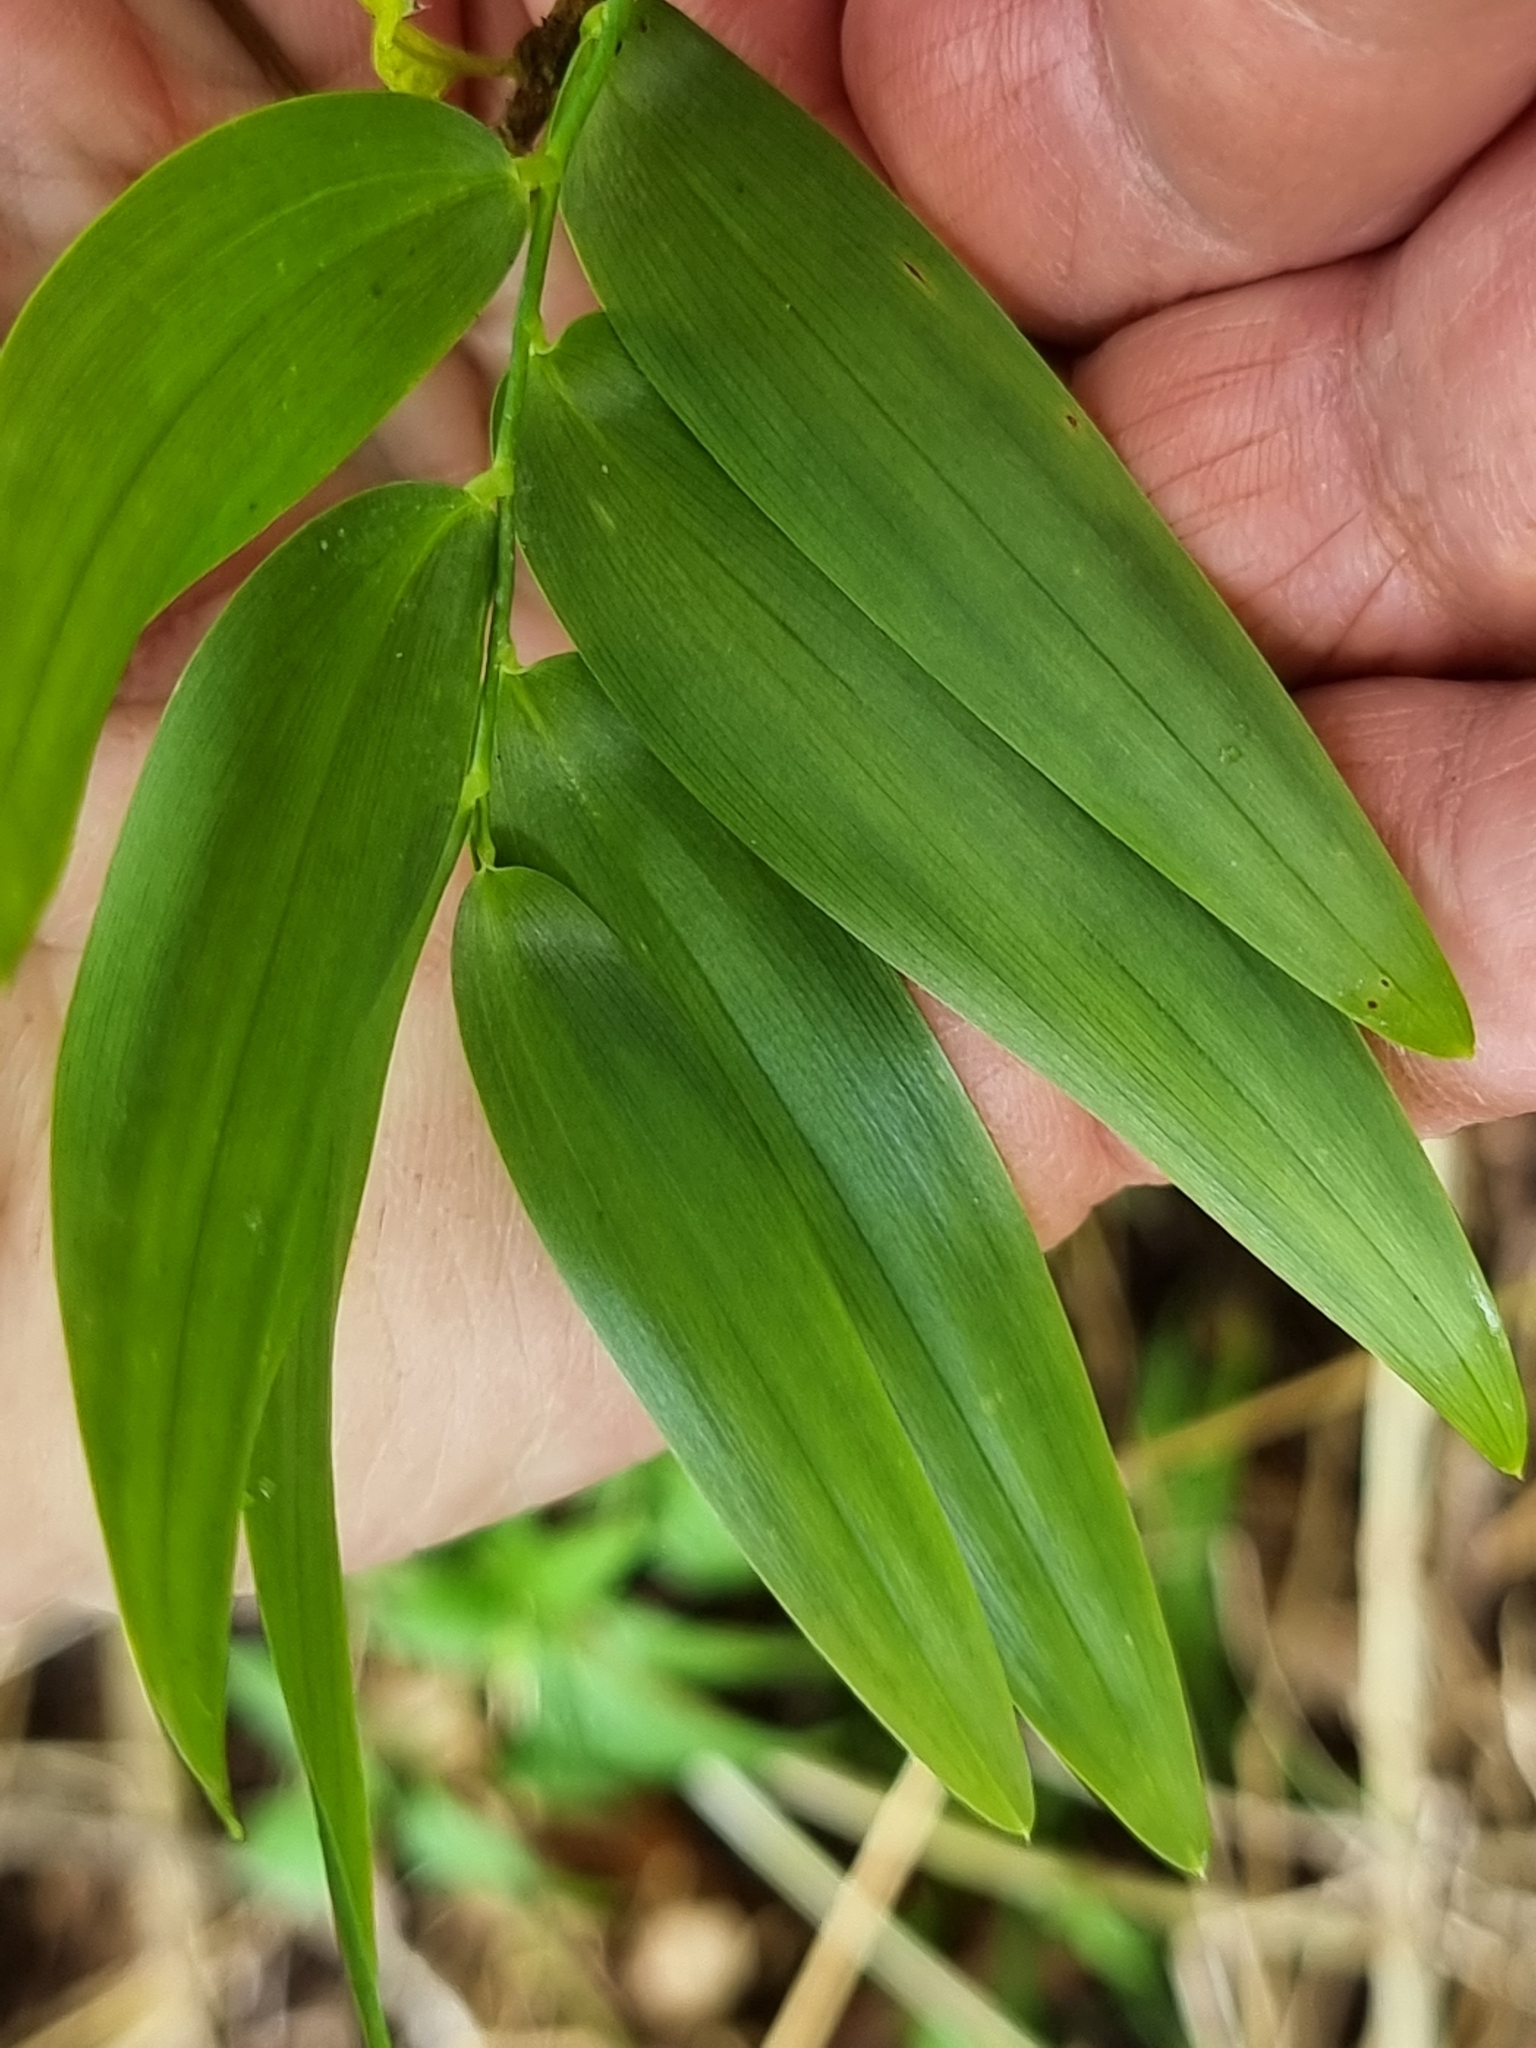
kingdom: Plantae
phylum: Tracheophyta
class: Liliopsida
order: Asparagales
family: Asphodelaceae
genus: Geitonoplesium
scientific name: Geitonoplesium cymosum
